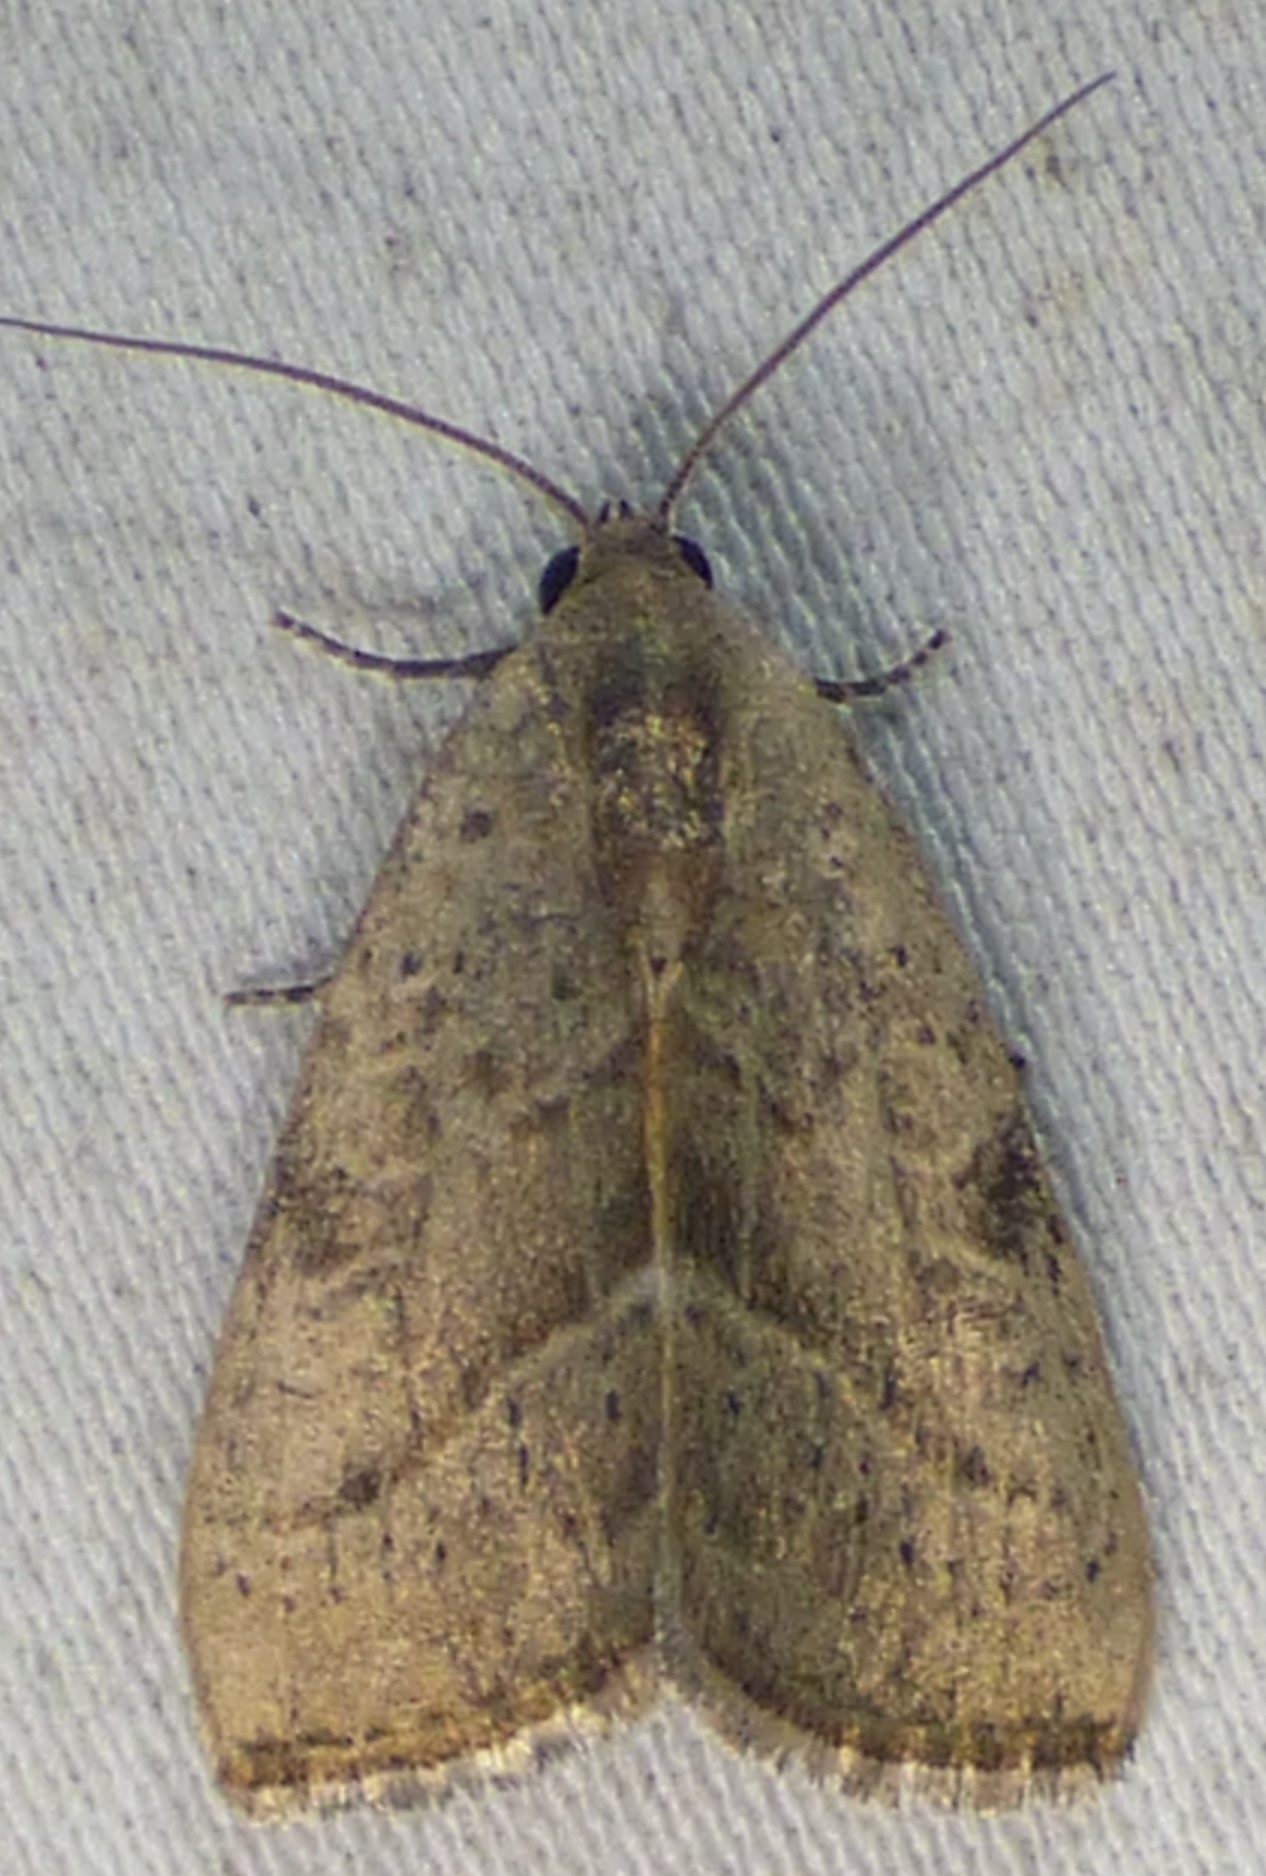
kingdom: Animalia
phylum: Arthropoda
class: Insecta
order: Lepidoptera
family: Noctuidae
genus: Galgula
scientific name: Galgula partita
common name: Wedgeling
